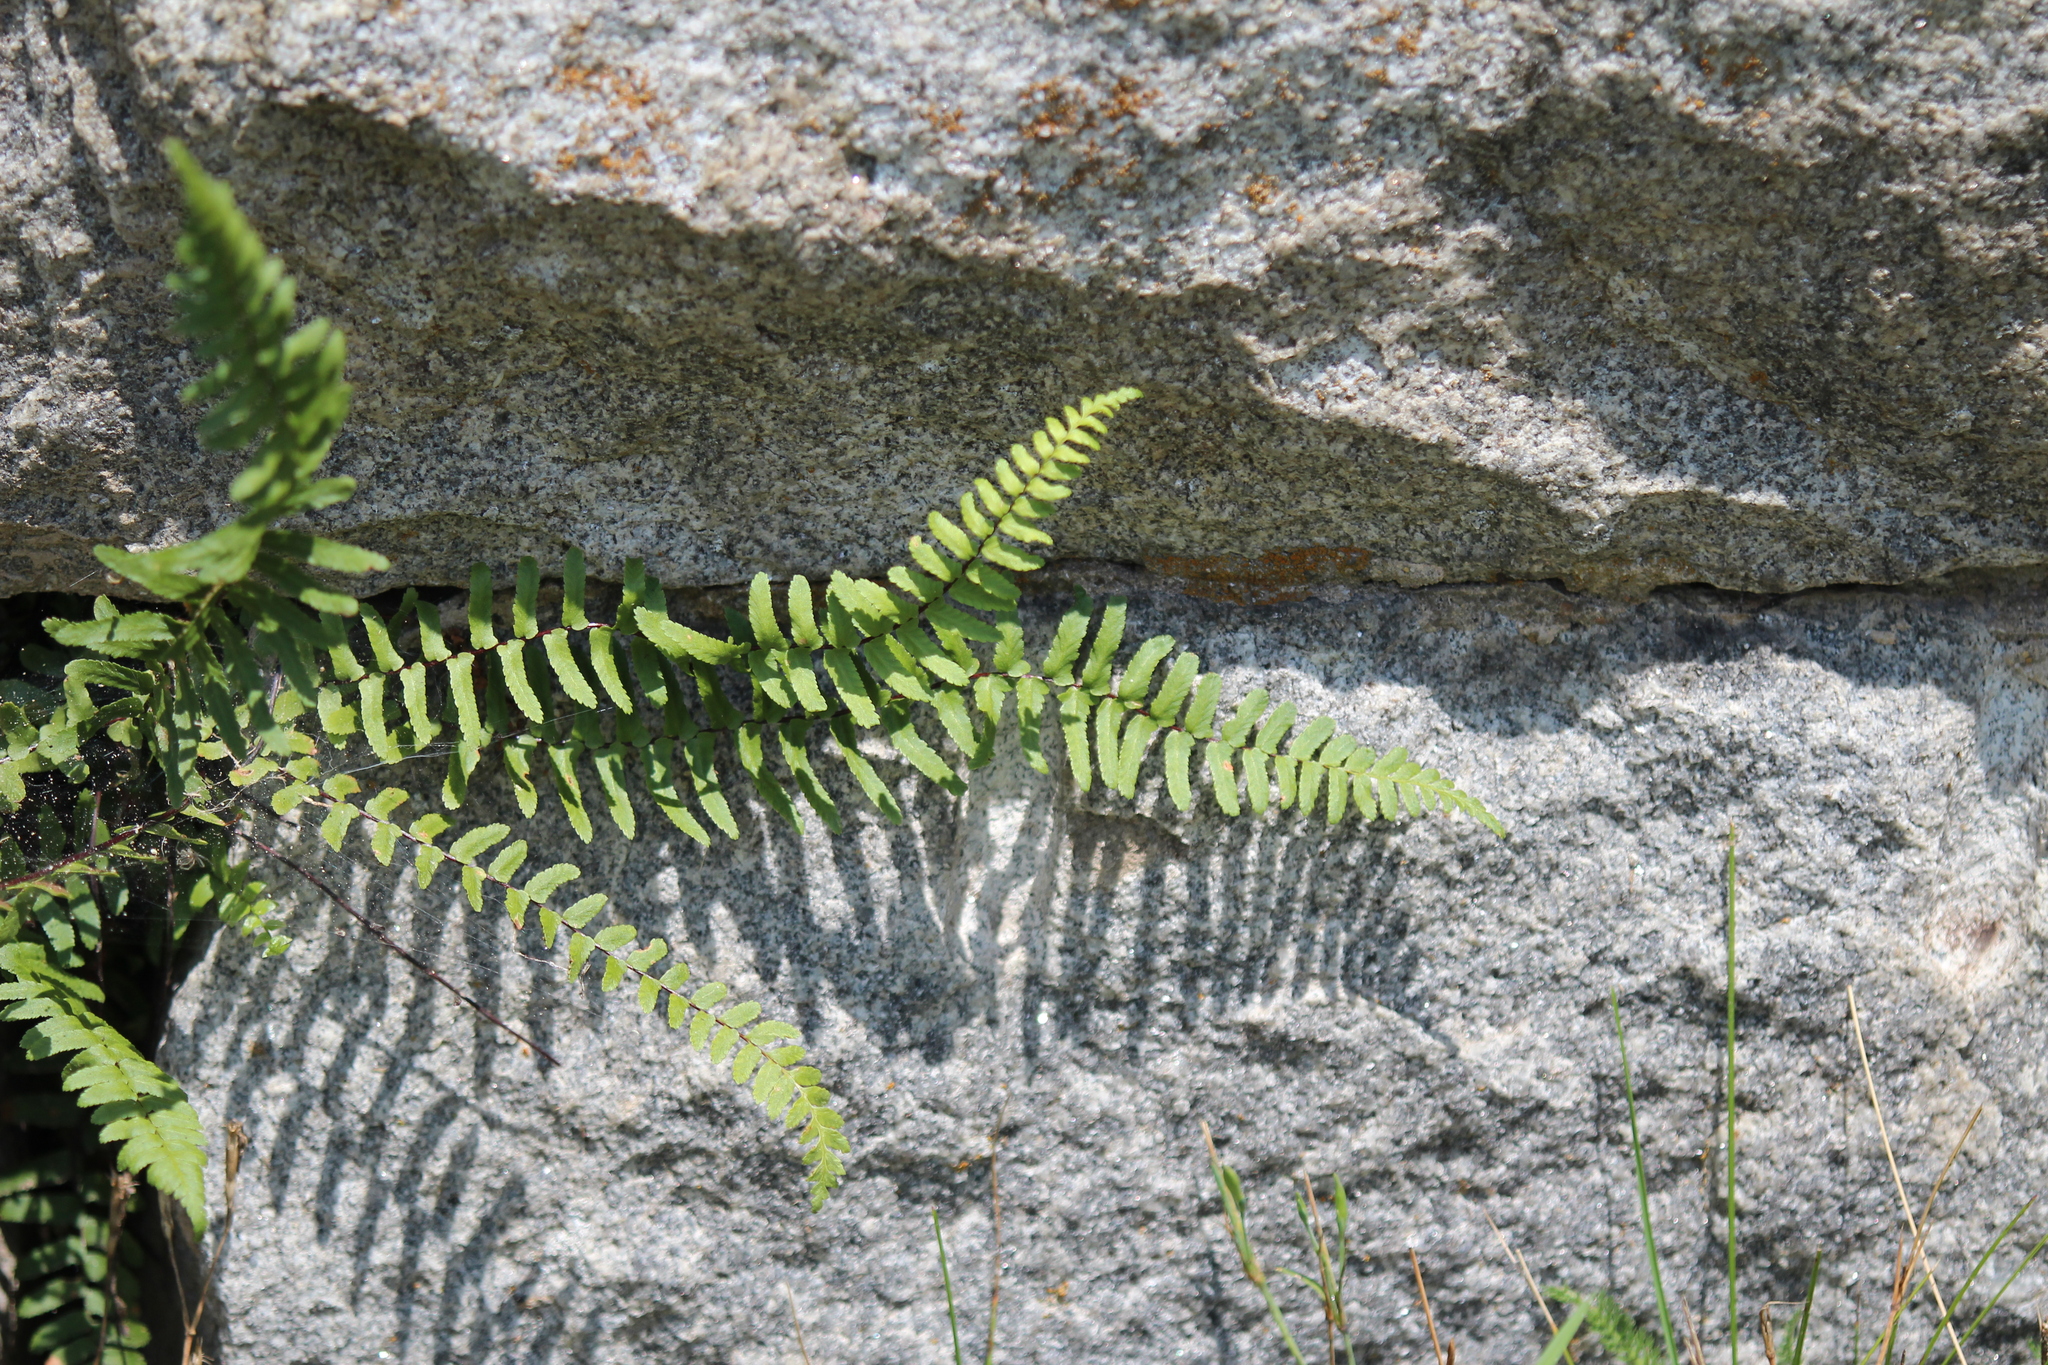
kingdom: Plantae
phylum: Tracheophyta
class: Polypodiopsida
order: Polypodiales
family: Aspleniaceae
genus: Asplenium
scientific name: Asplenium platyneuron
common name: Ebony spleenwort
